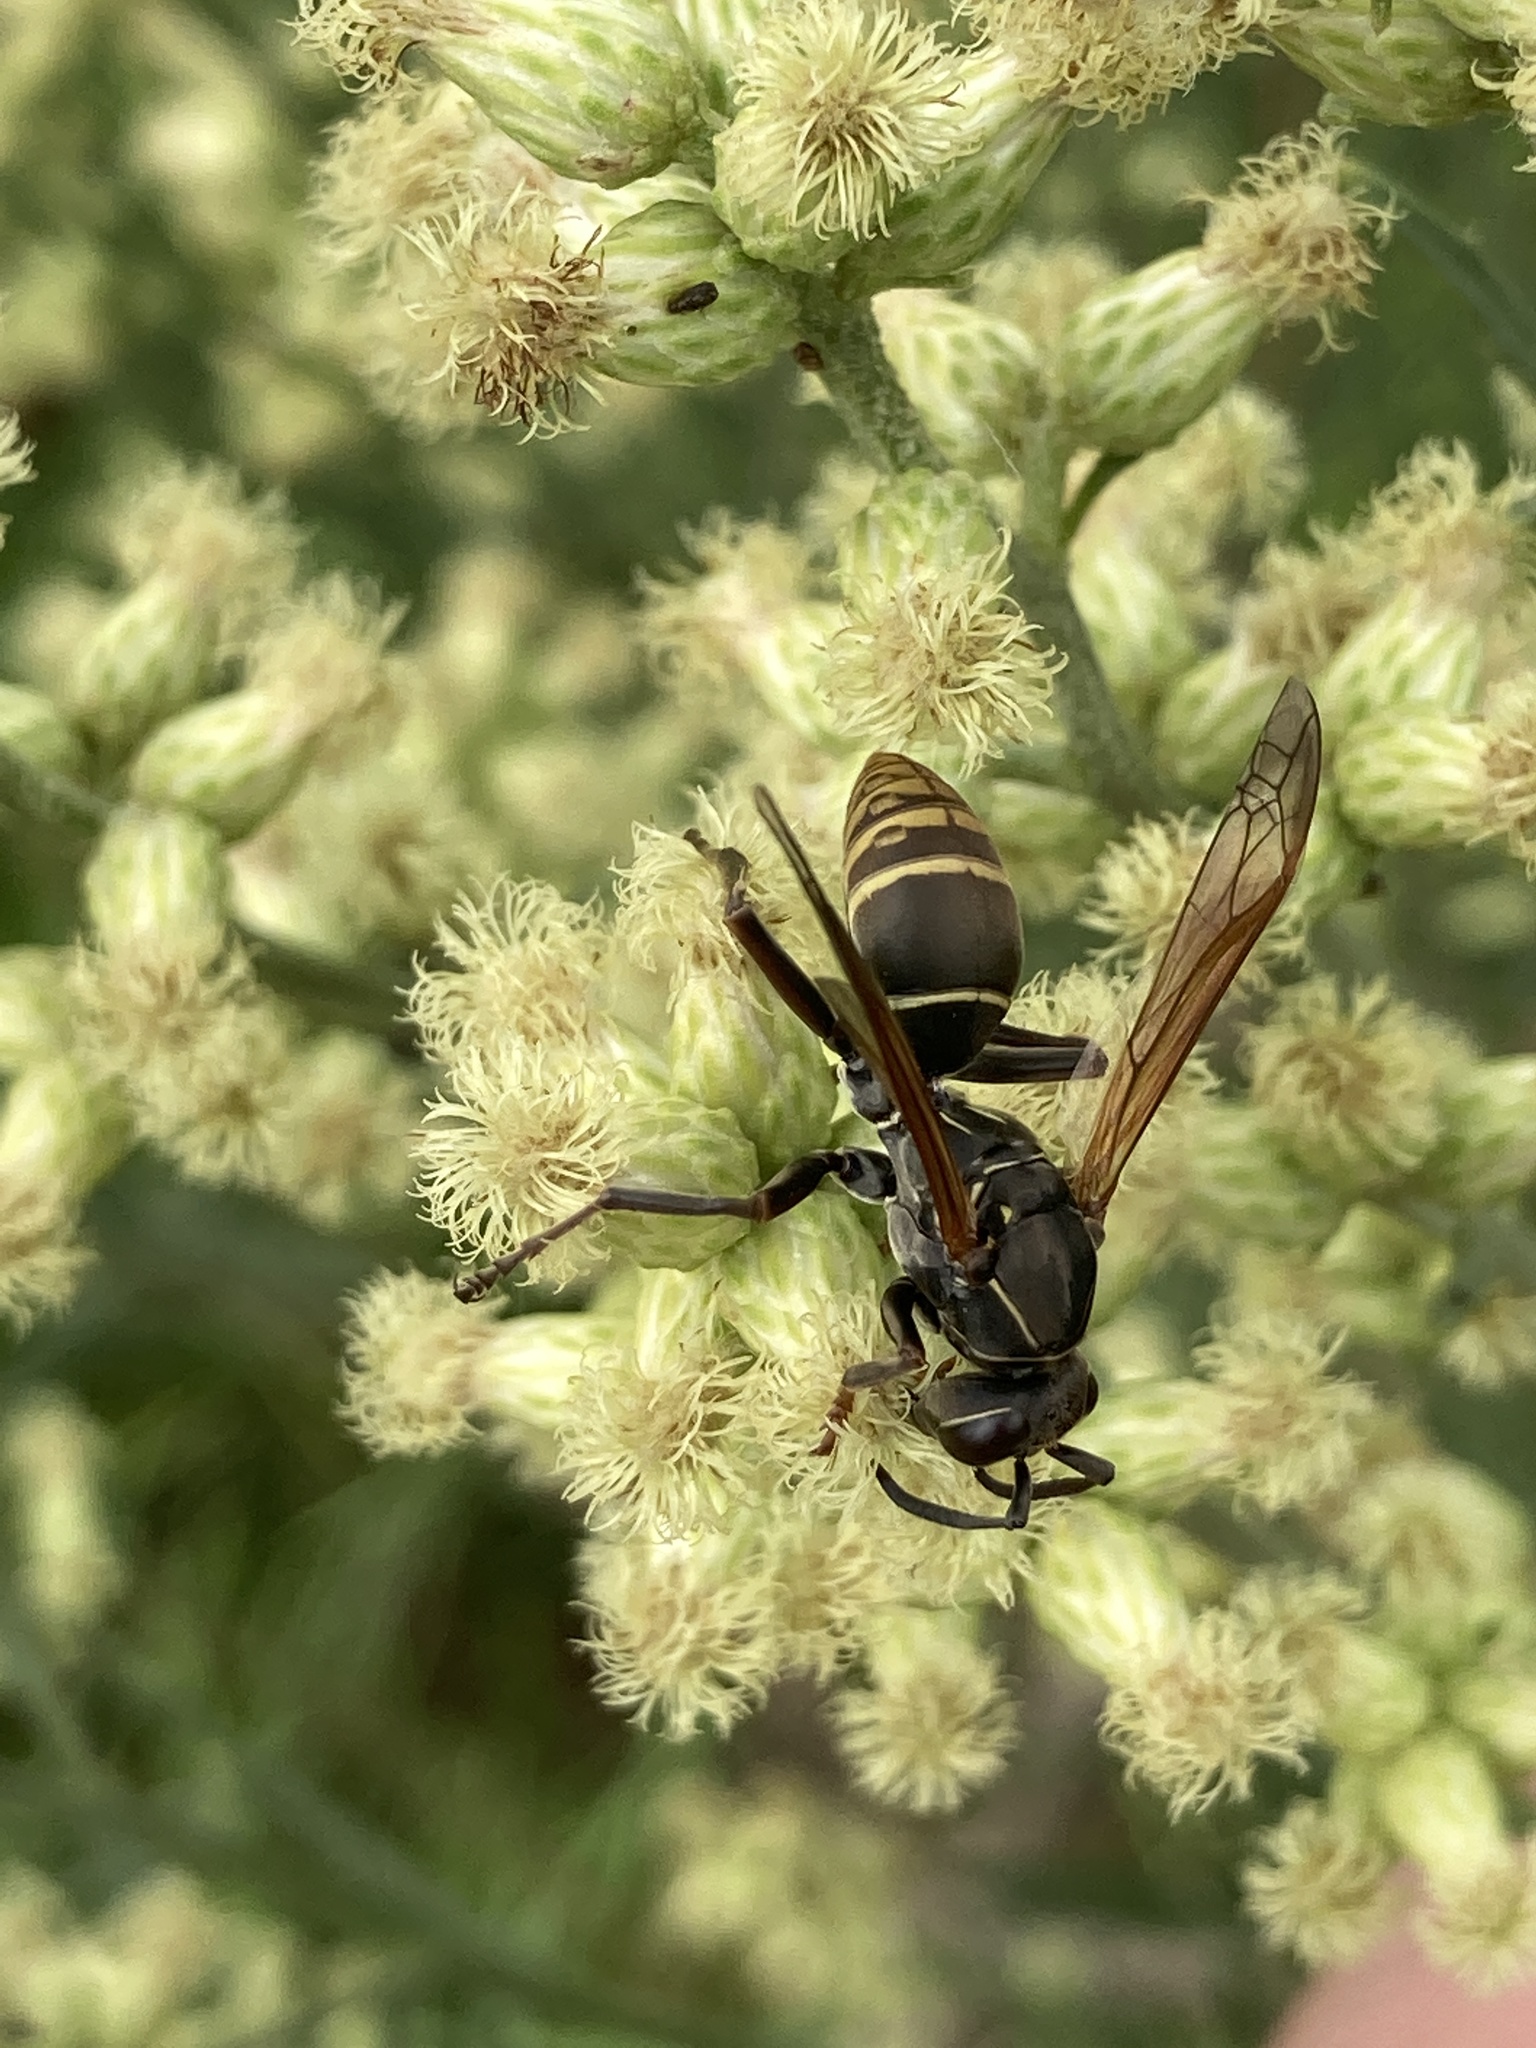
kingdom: Animalia
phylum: Arthropoda
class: Insecta
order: Hymenoptera
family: Eumenidae
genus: Polistes
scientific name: Polistes cinerascens
